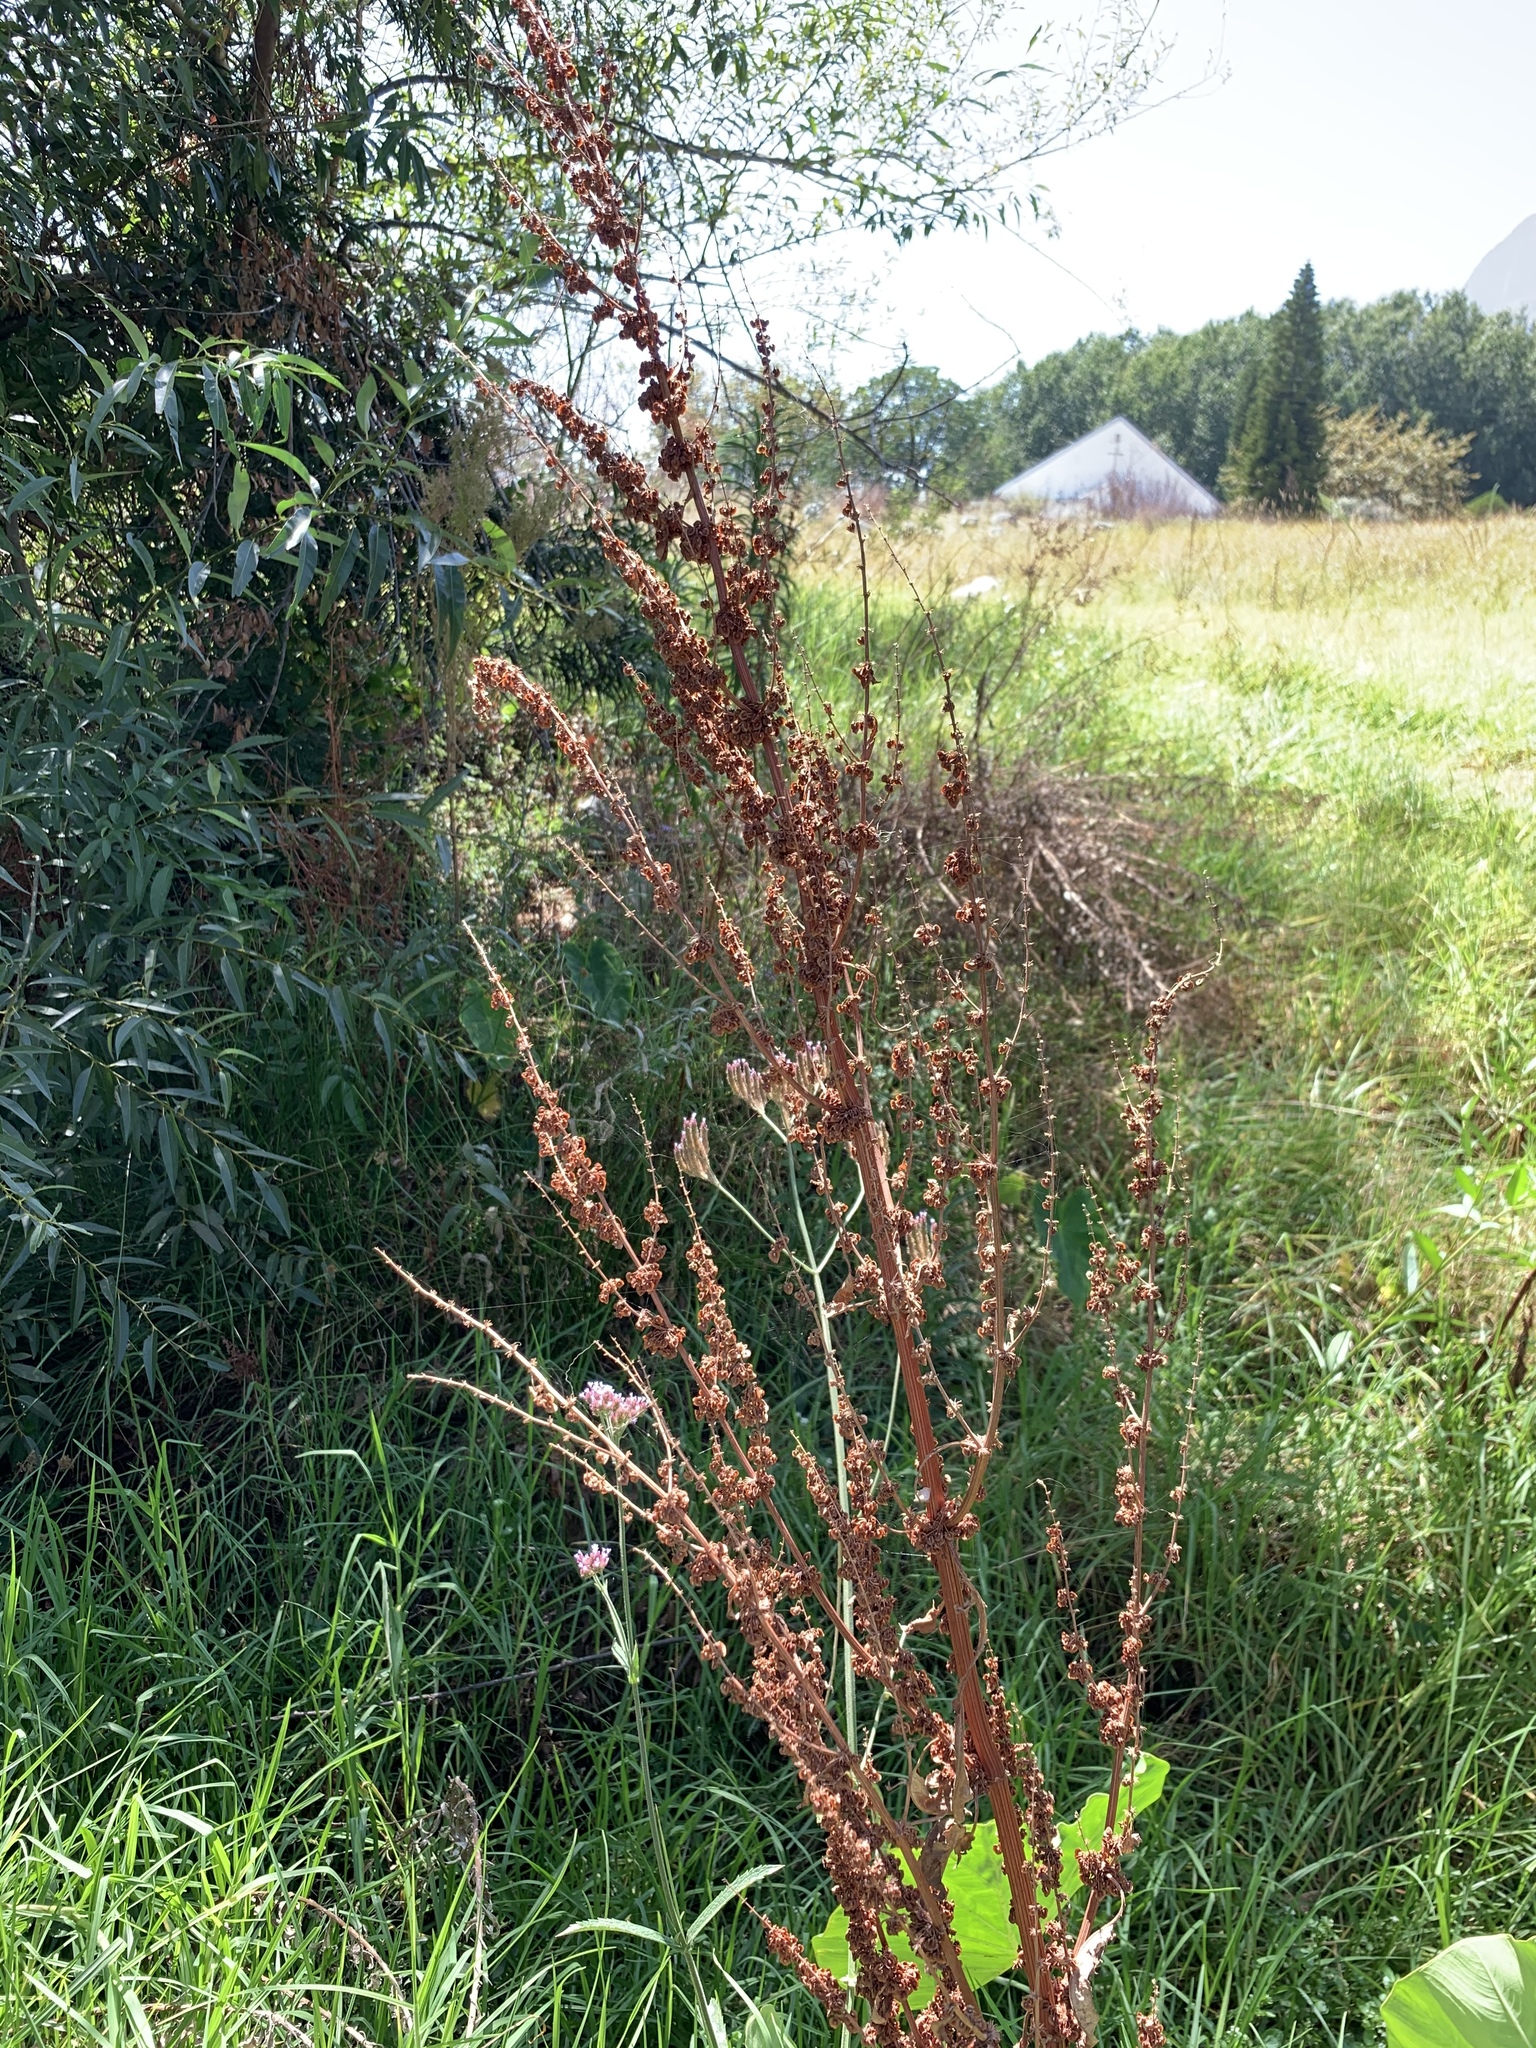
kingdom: Plantae
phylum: Tracheophyta
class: Magnoliopsida
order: Caryophyllales
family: Polygonaceae
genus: Rumex
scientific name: Rumex crispus
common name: Curled dock
